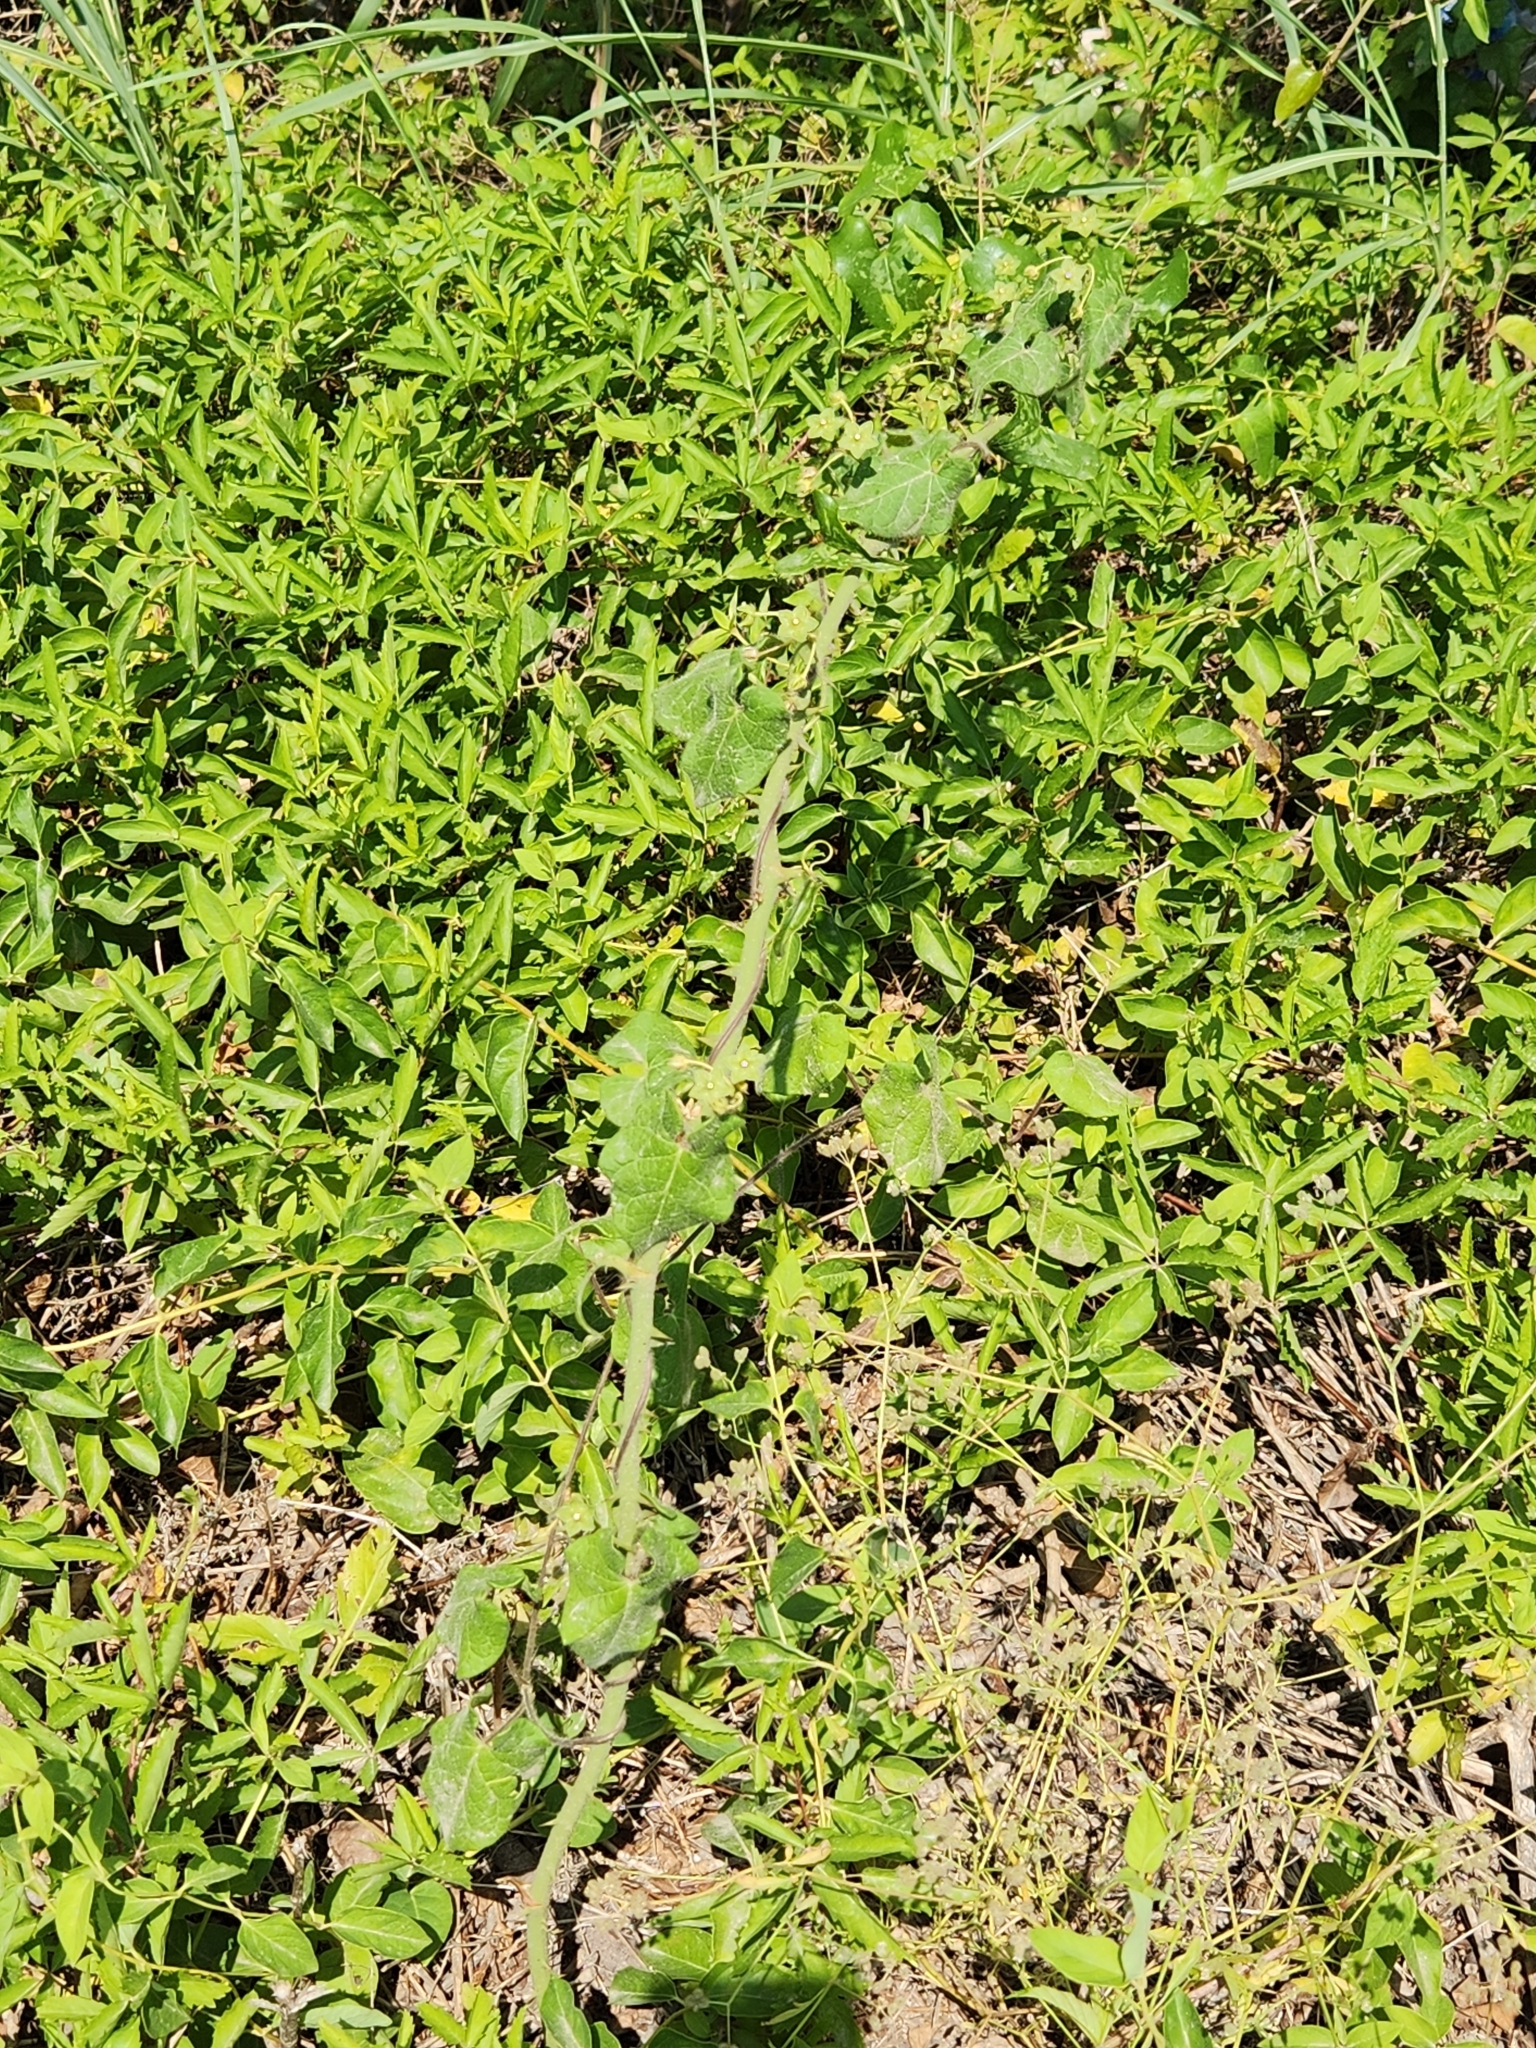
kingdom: Plantae
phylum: Tracheophyta
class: Magnoliopsida
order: Gentianales
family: Apocynaceae
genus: Dictyanthus
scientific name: Dictyanthus reticulatus
